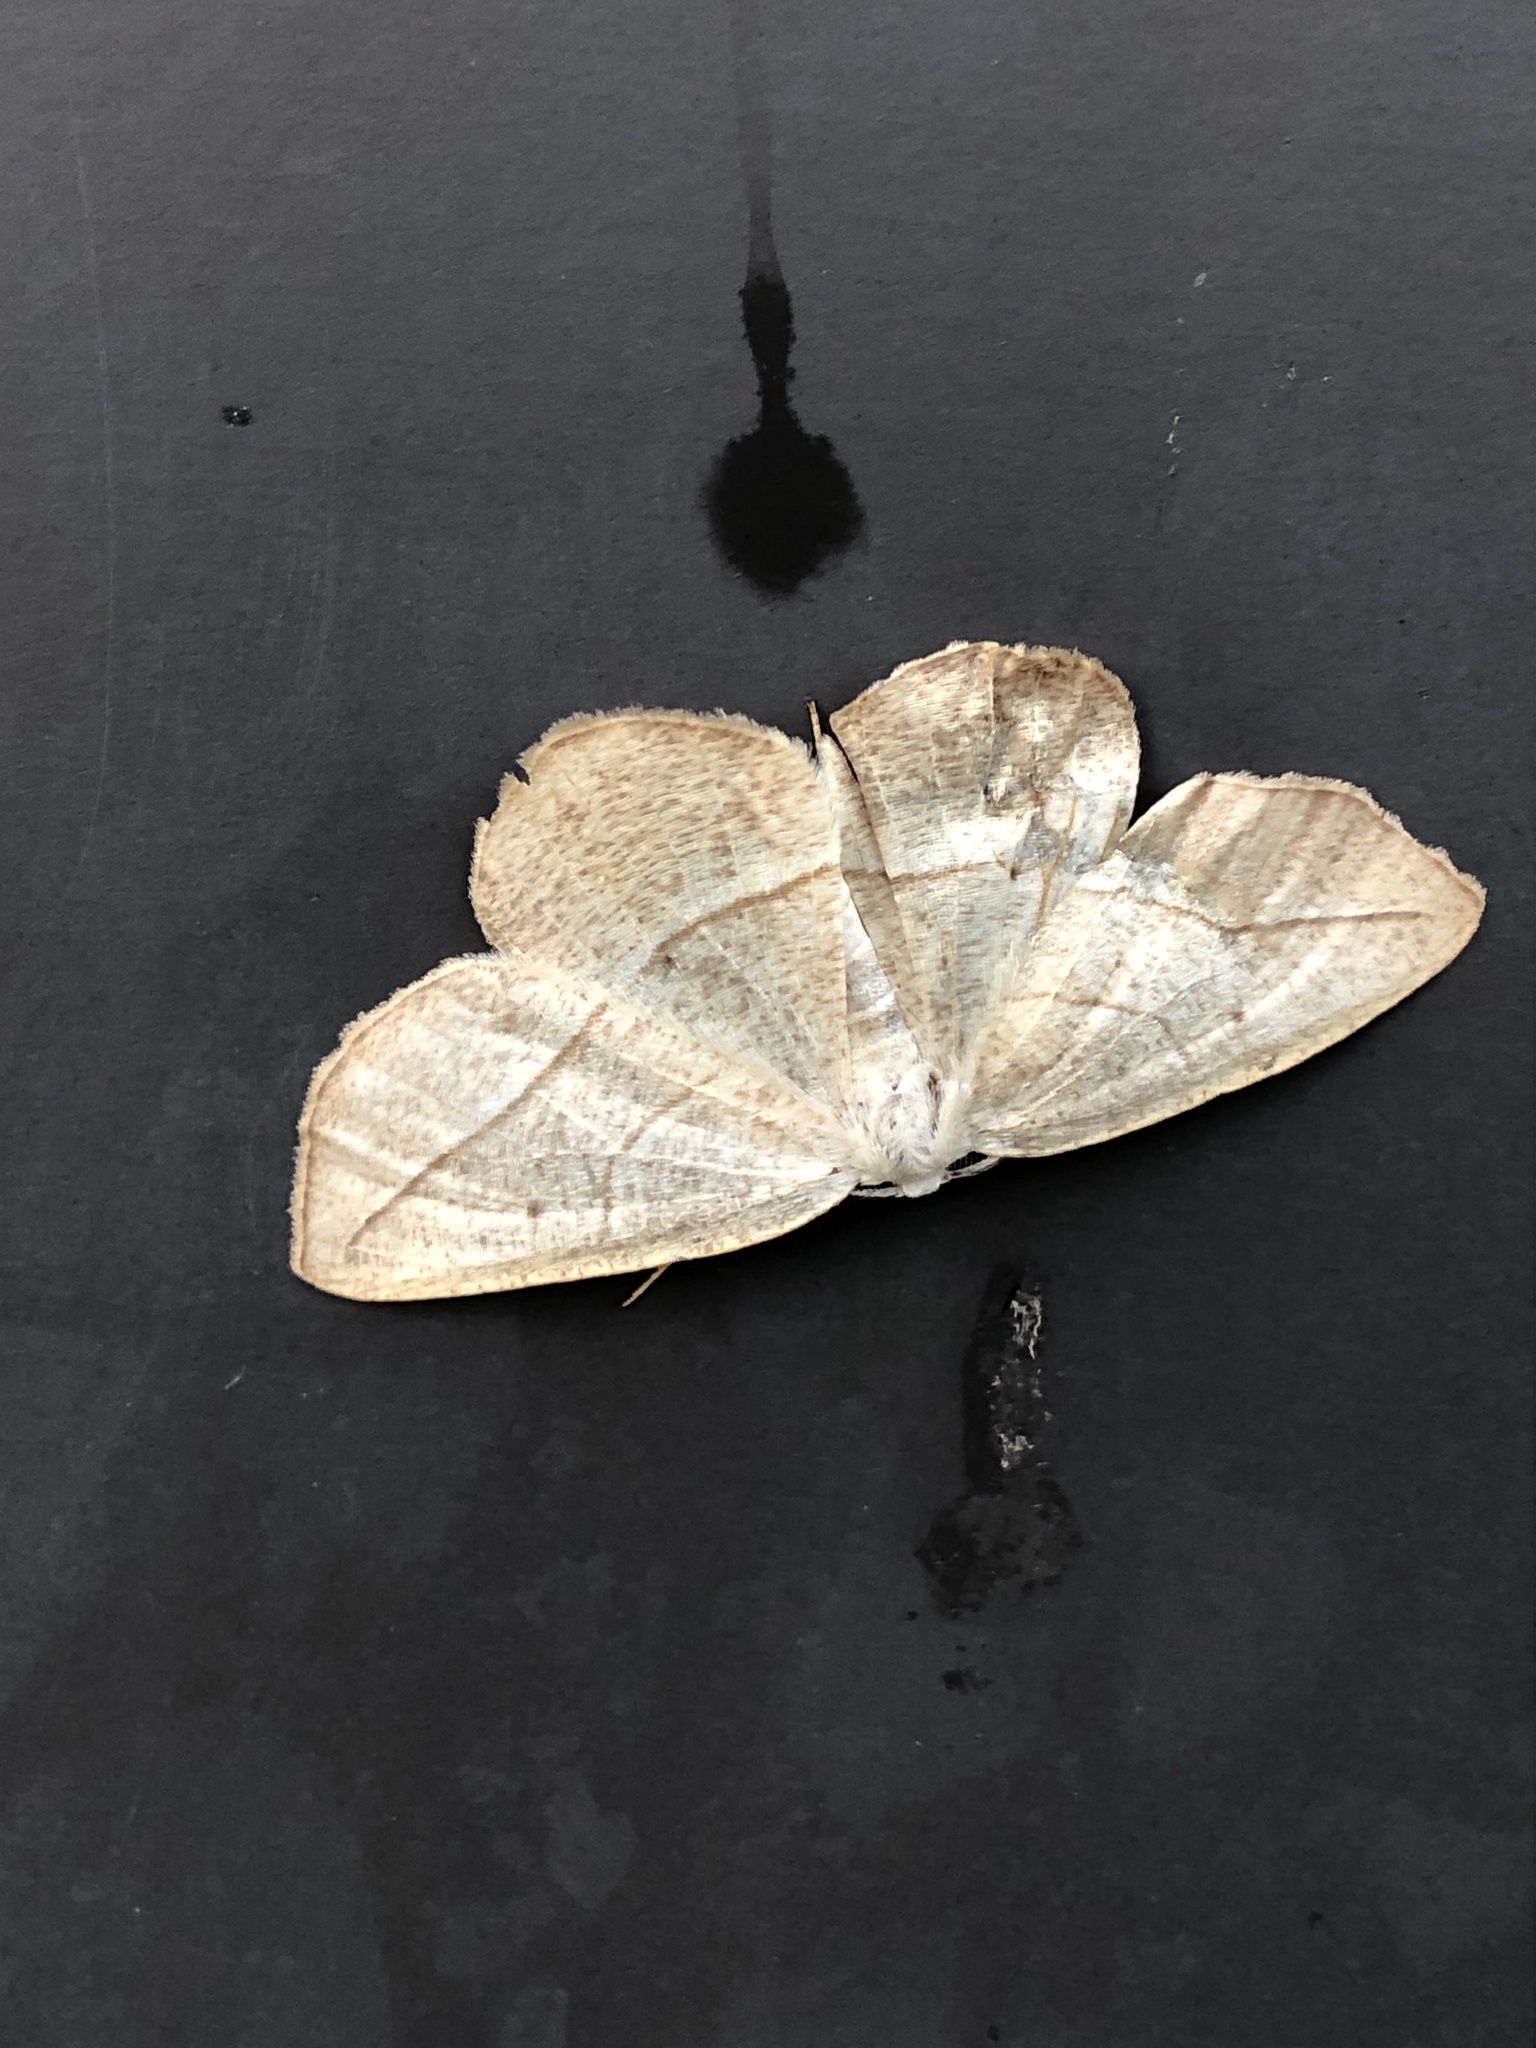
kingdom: Animalia
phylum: Arthropoda
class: Insecta
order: Lepidoptera
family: Geometridae
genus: Eusarca
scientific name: Eusarca confusaria
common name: Confused eusarca
